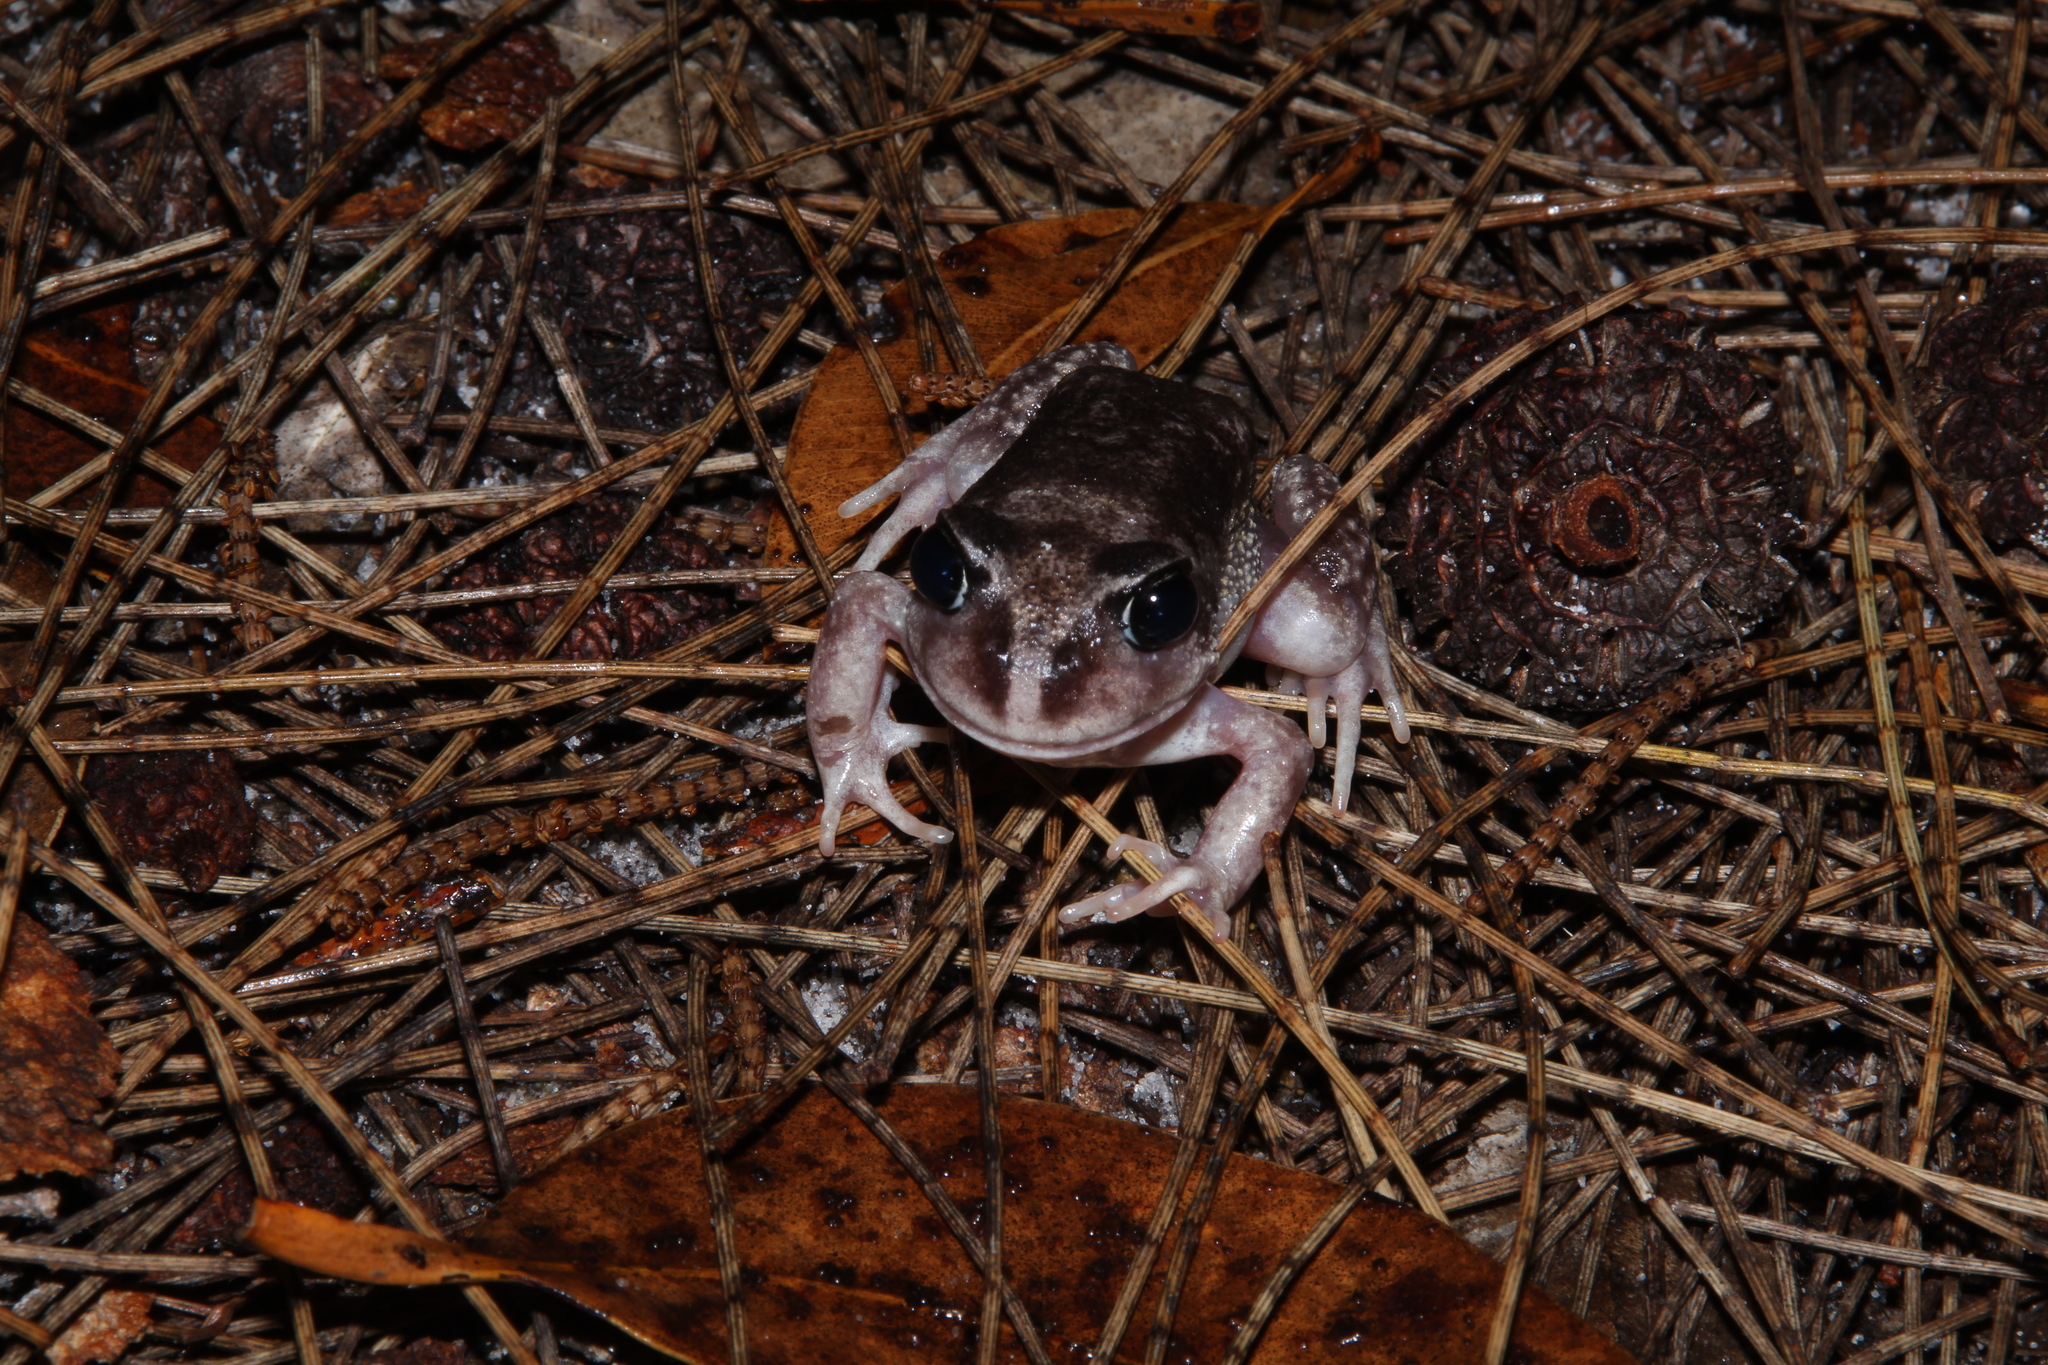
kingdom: Animalia
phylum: Chordata
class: Amphibia
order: Anura
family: Limnodynastidae
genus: Heleioporus
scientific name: Heleioporus eyrei
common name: Moaning frog
